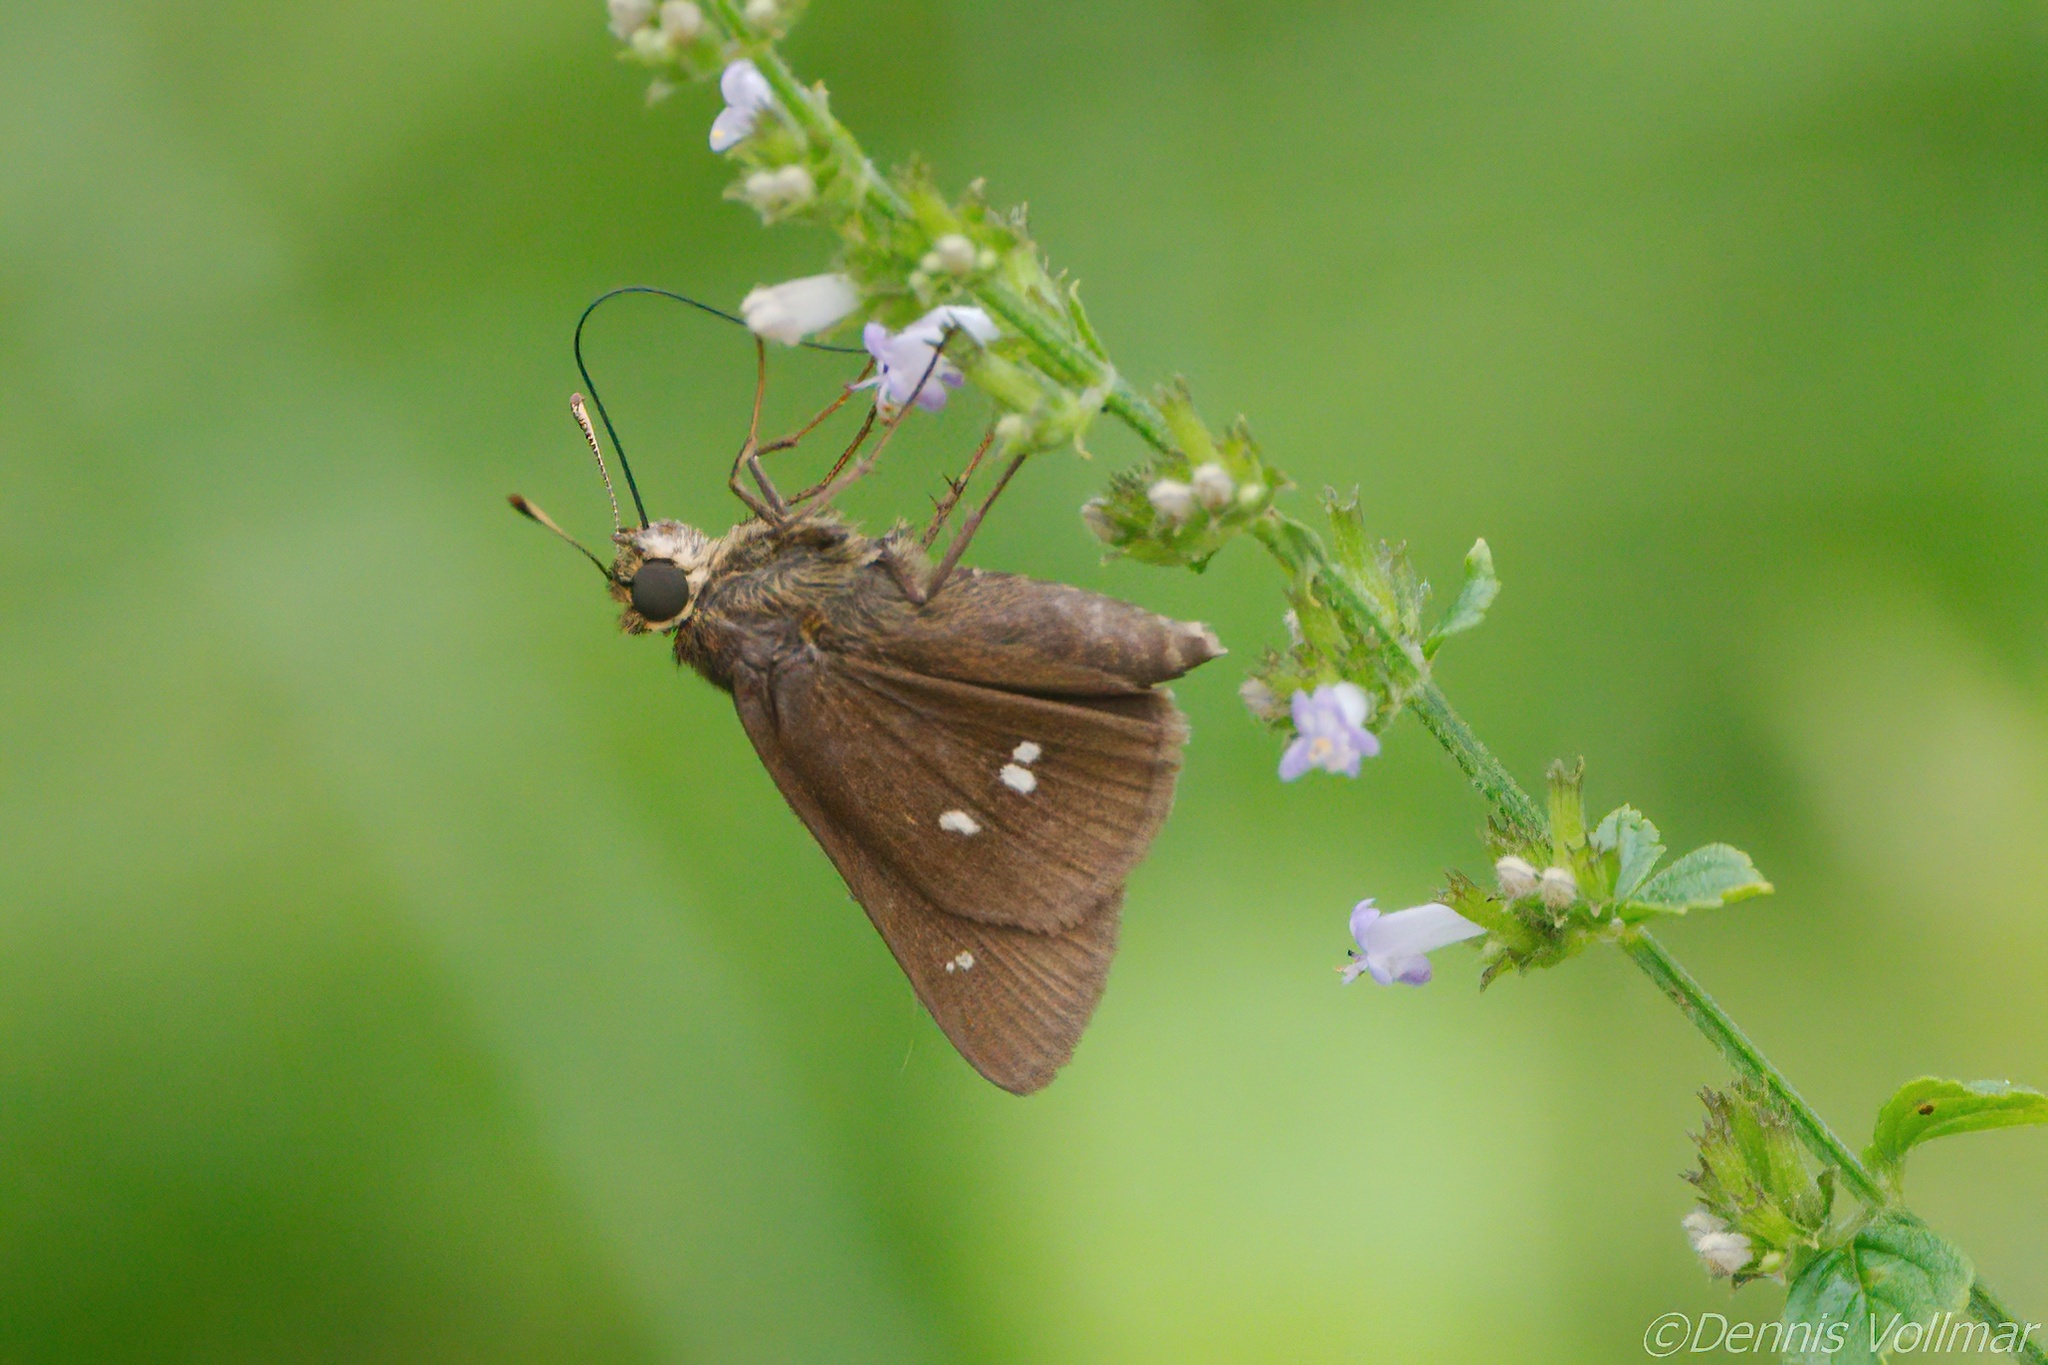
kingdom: Animalia
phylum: Arthropoda
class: Insecta
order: Lepidoptera
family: Hesperiidae
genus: Oligoria
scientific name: Oligoria maculata
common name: Twin-spot skipper
